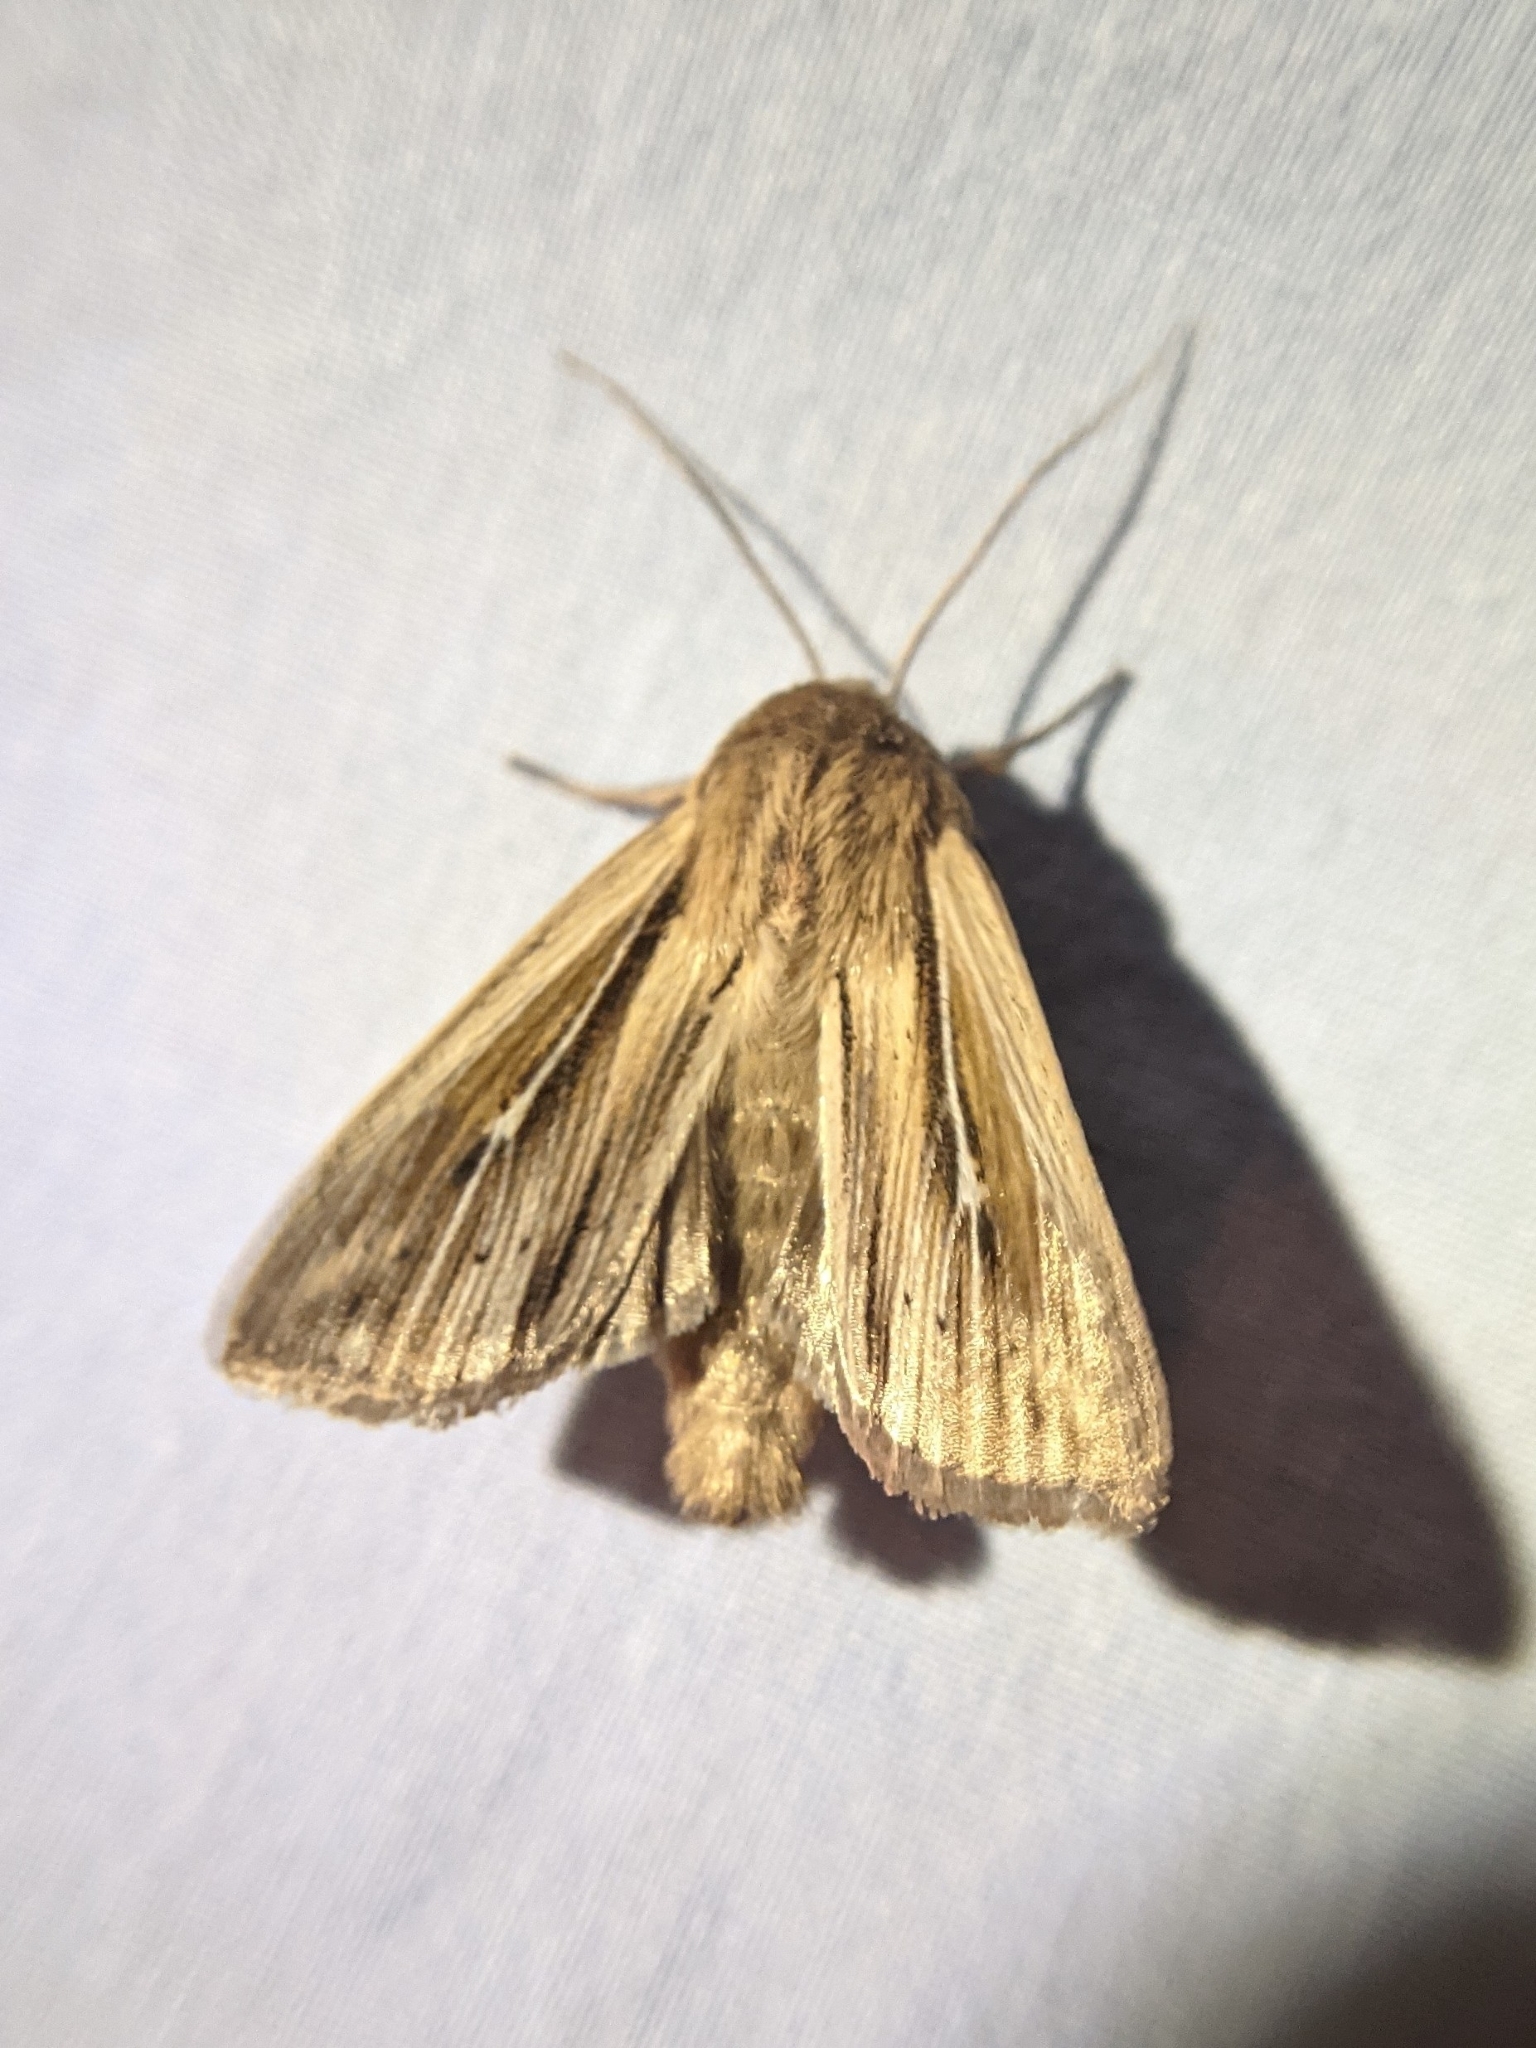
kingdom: Animalia
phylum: Arthropoda
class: Insecta
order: Lepidoptera
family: Noctuidae
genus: Leucania
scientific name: Leucania commoides
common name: Two-lined wainscot
